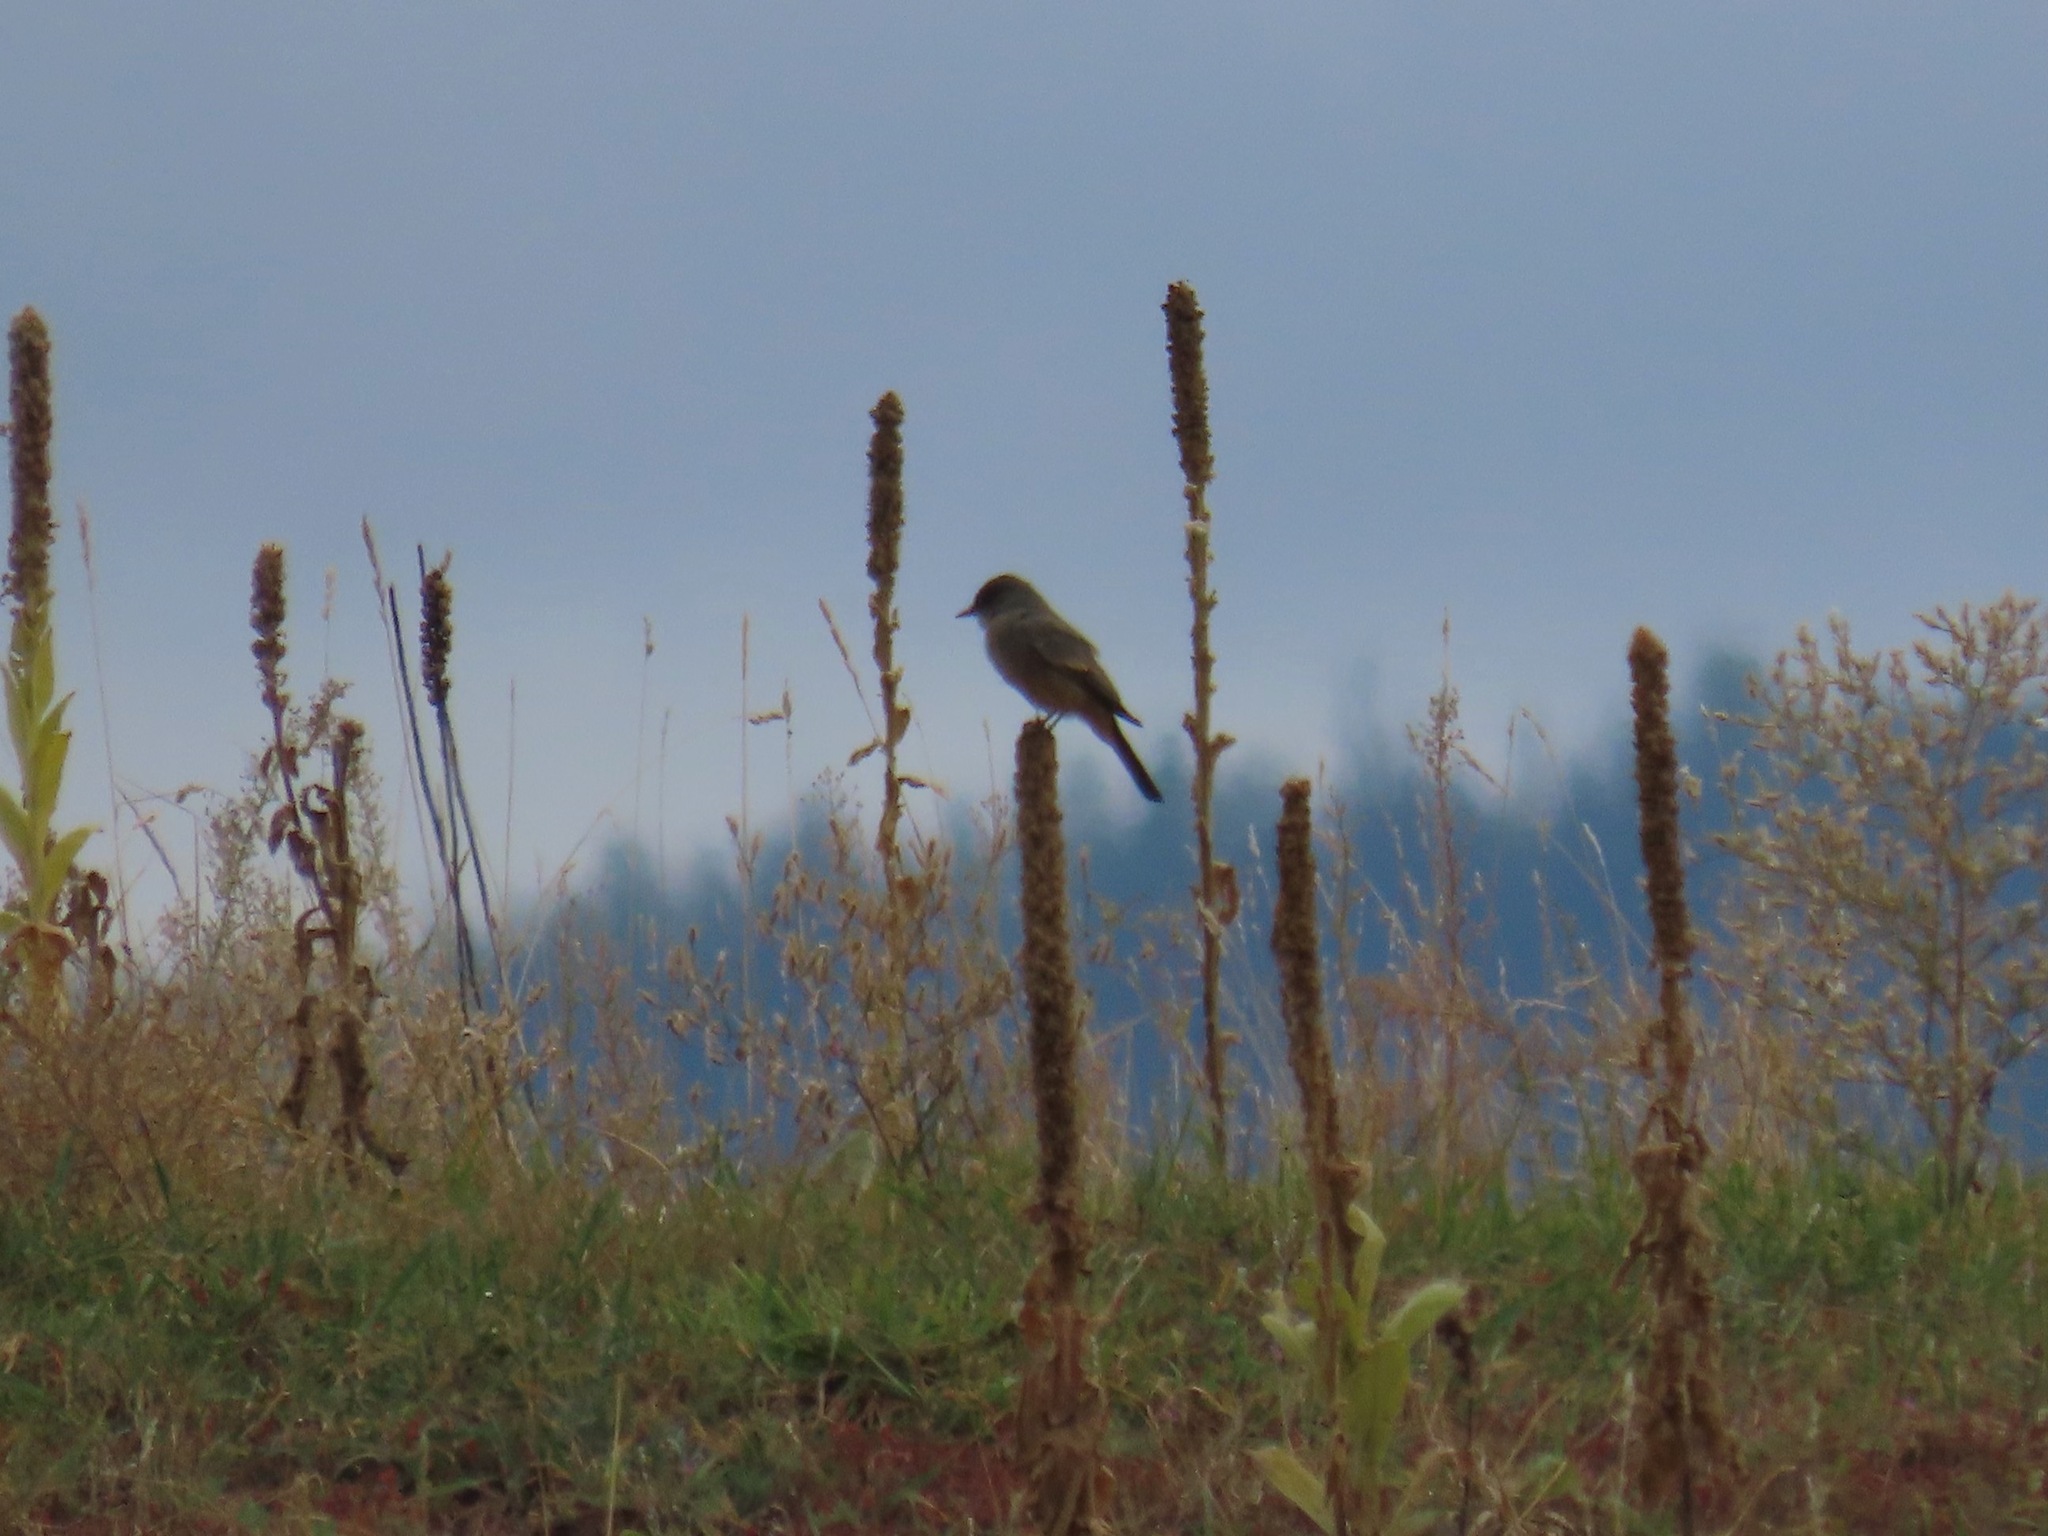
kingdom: Animalia
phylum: Chordata
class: Aves
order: Passeriformes
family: Tyrannidae
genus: Sayornis
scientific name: Sayornis saya
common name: Say's phoebe
